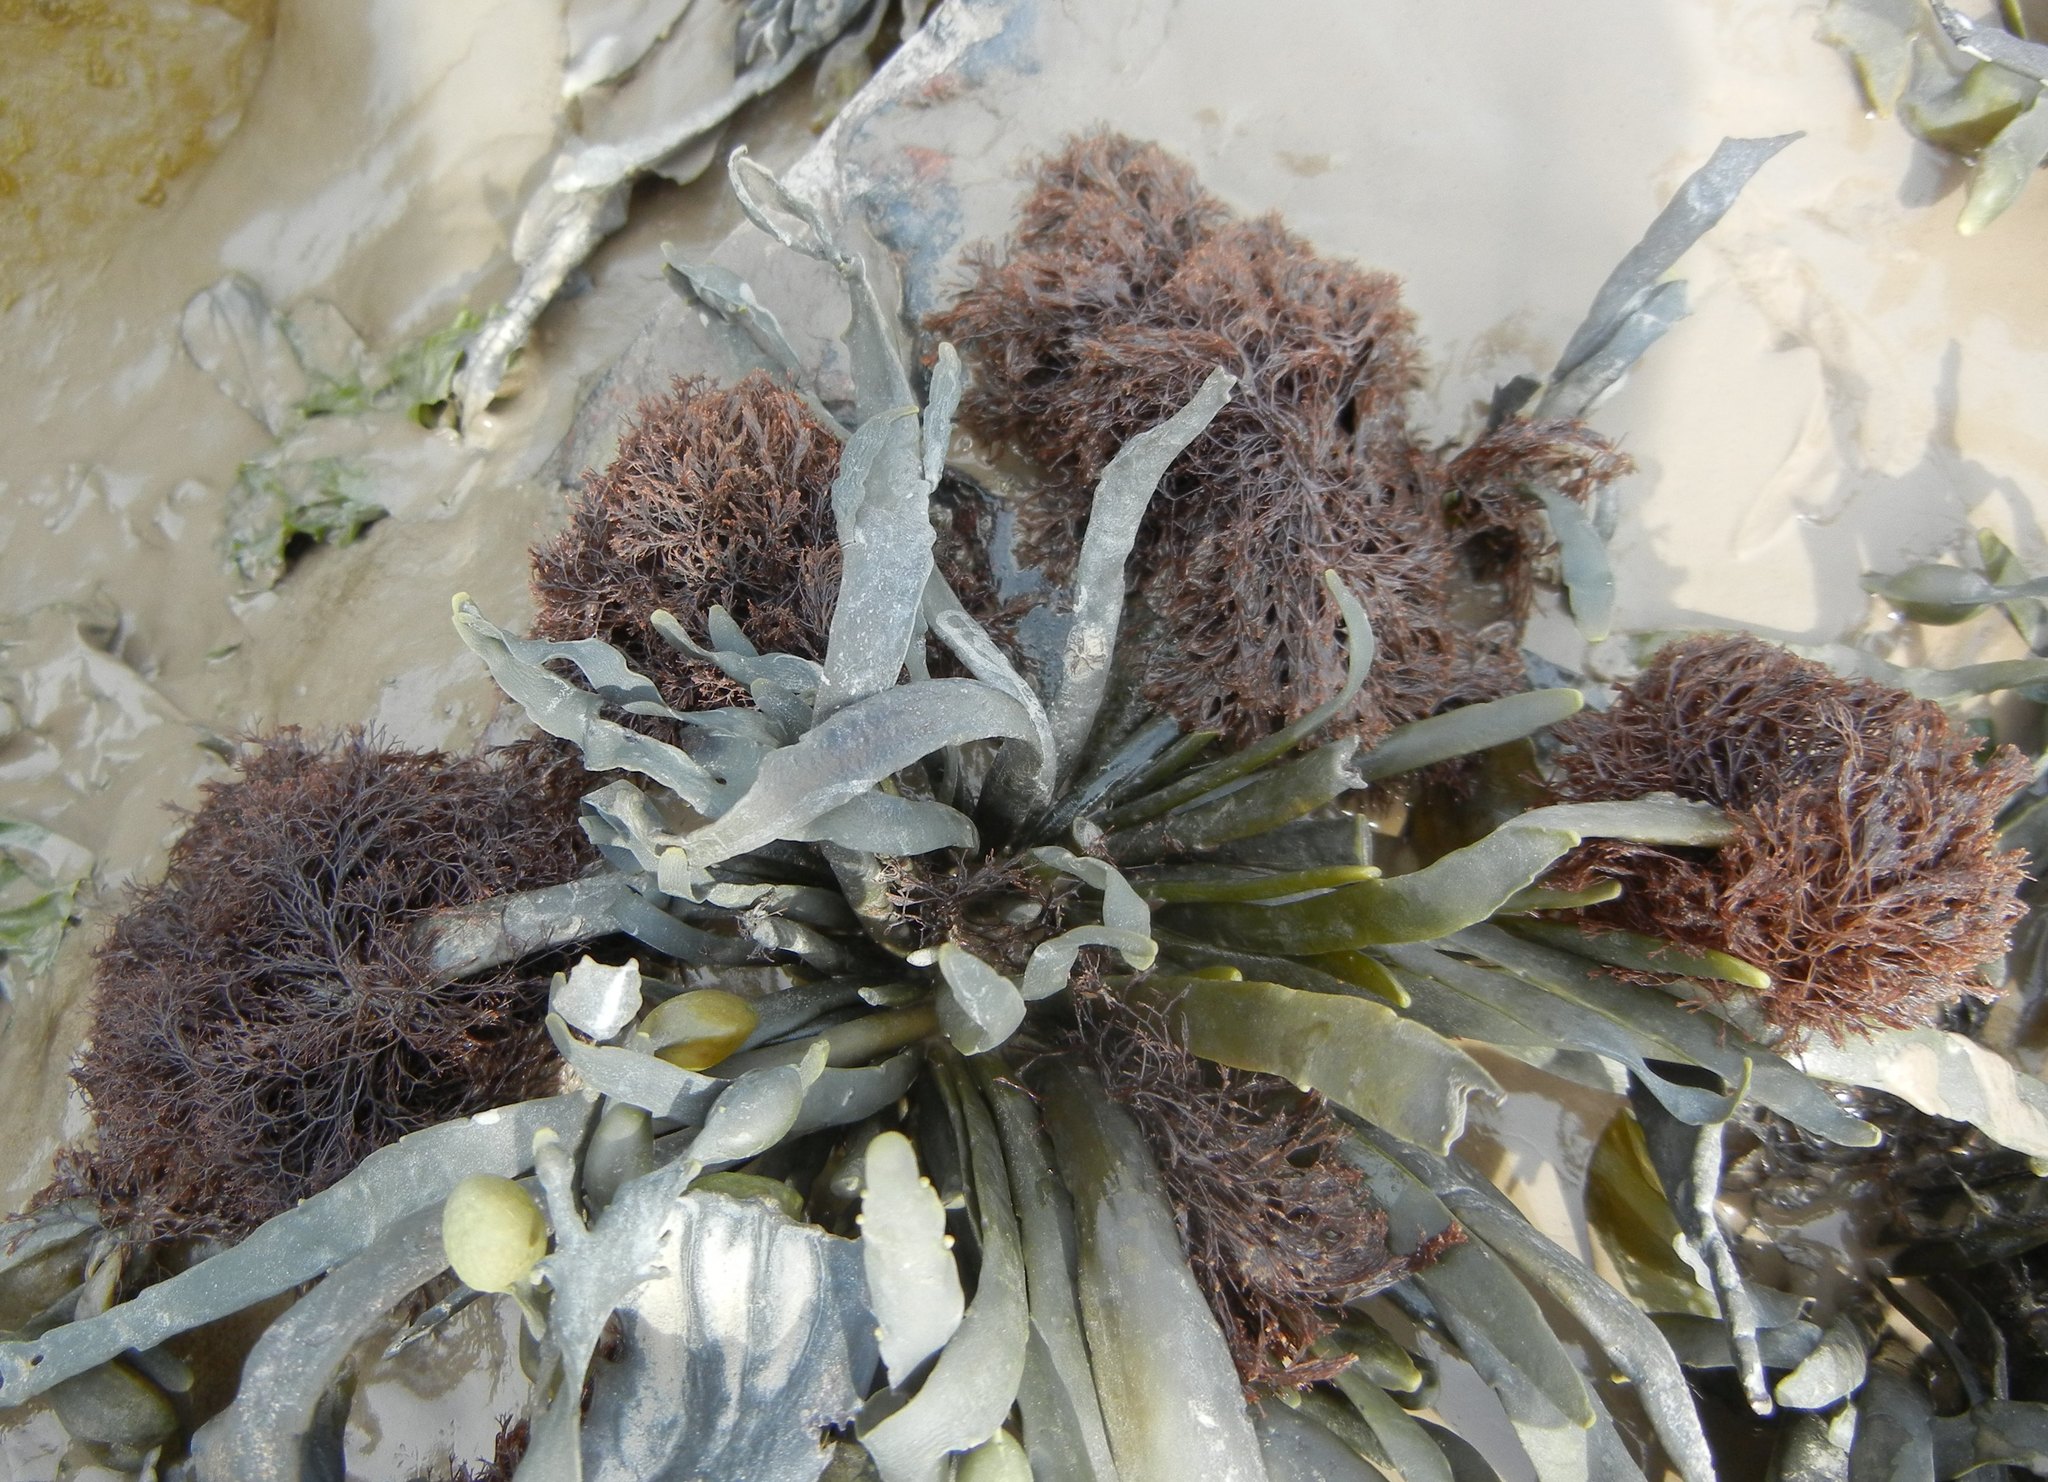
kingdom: Plantae
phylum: Rhodophyta
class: Florideophyceae
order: Ceramiales
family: Rhodomelaceae
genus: Vertebrata
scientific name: Vertebrata lanosa
